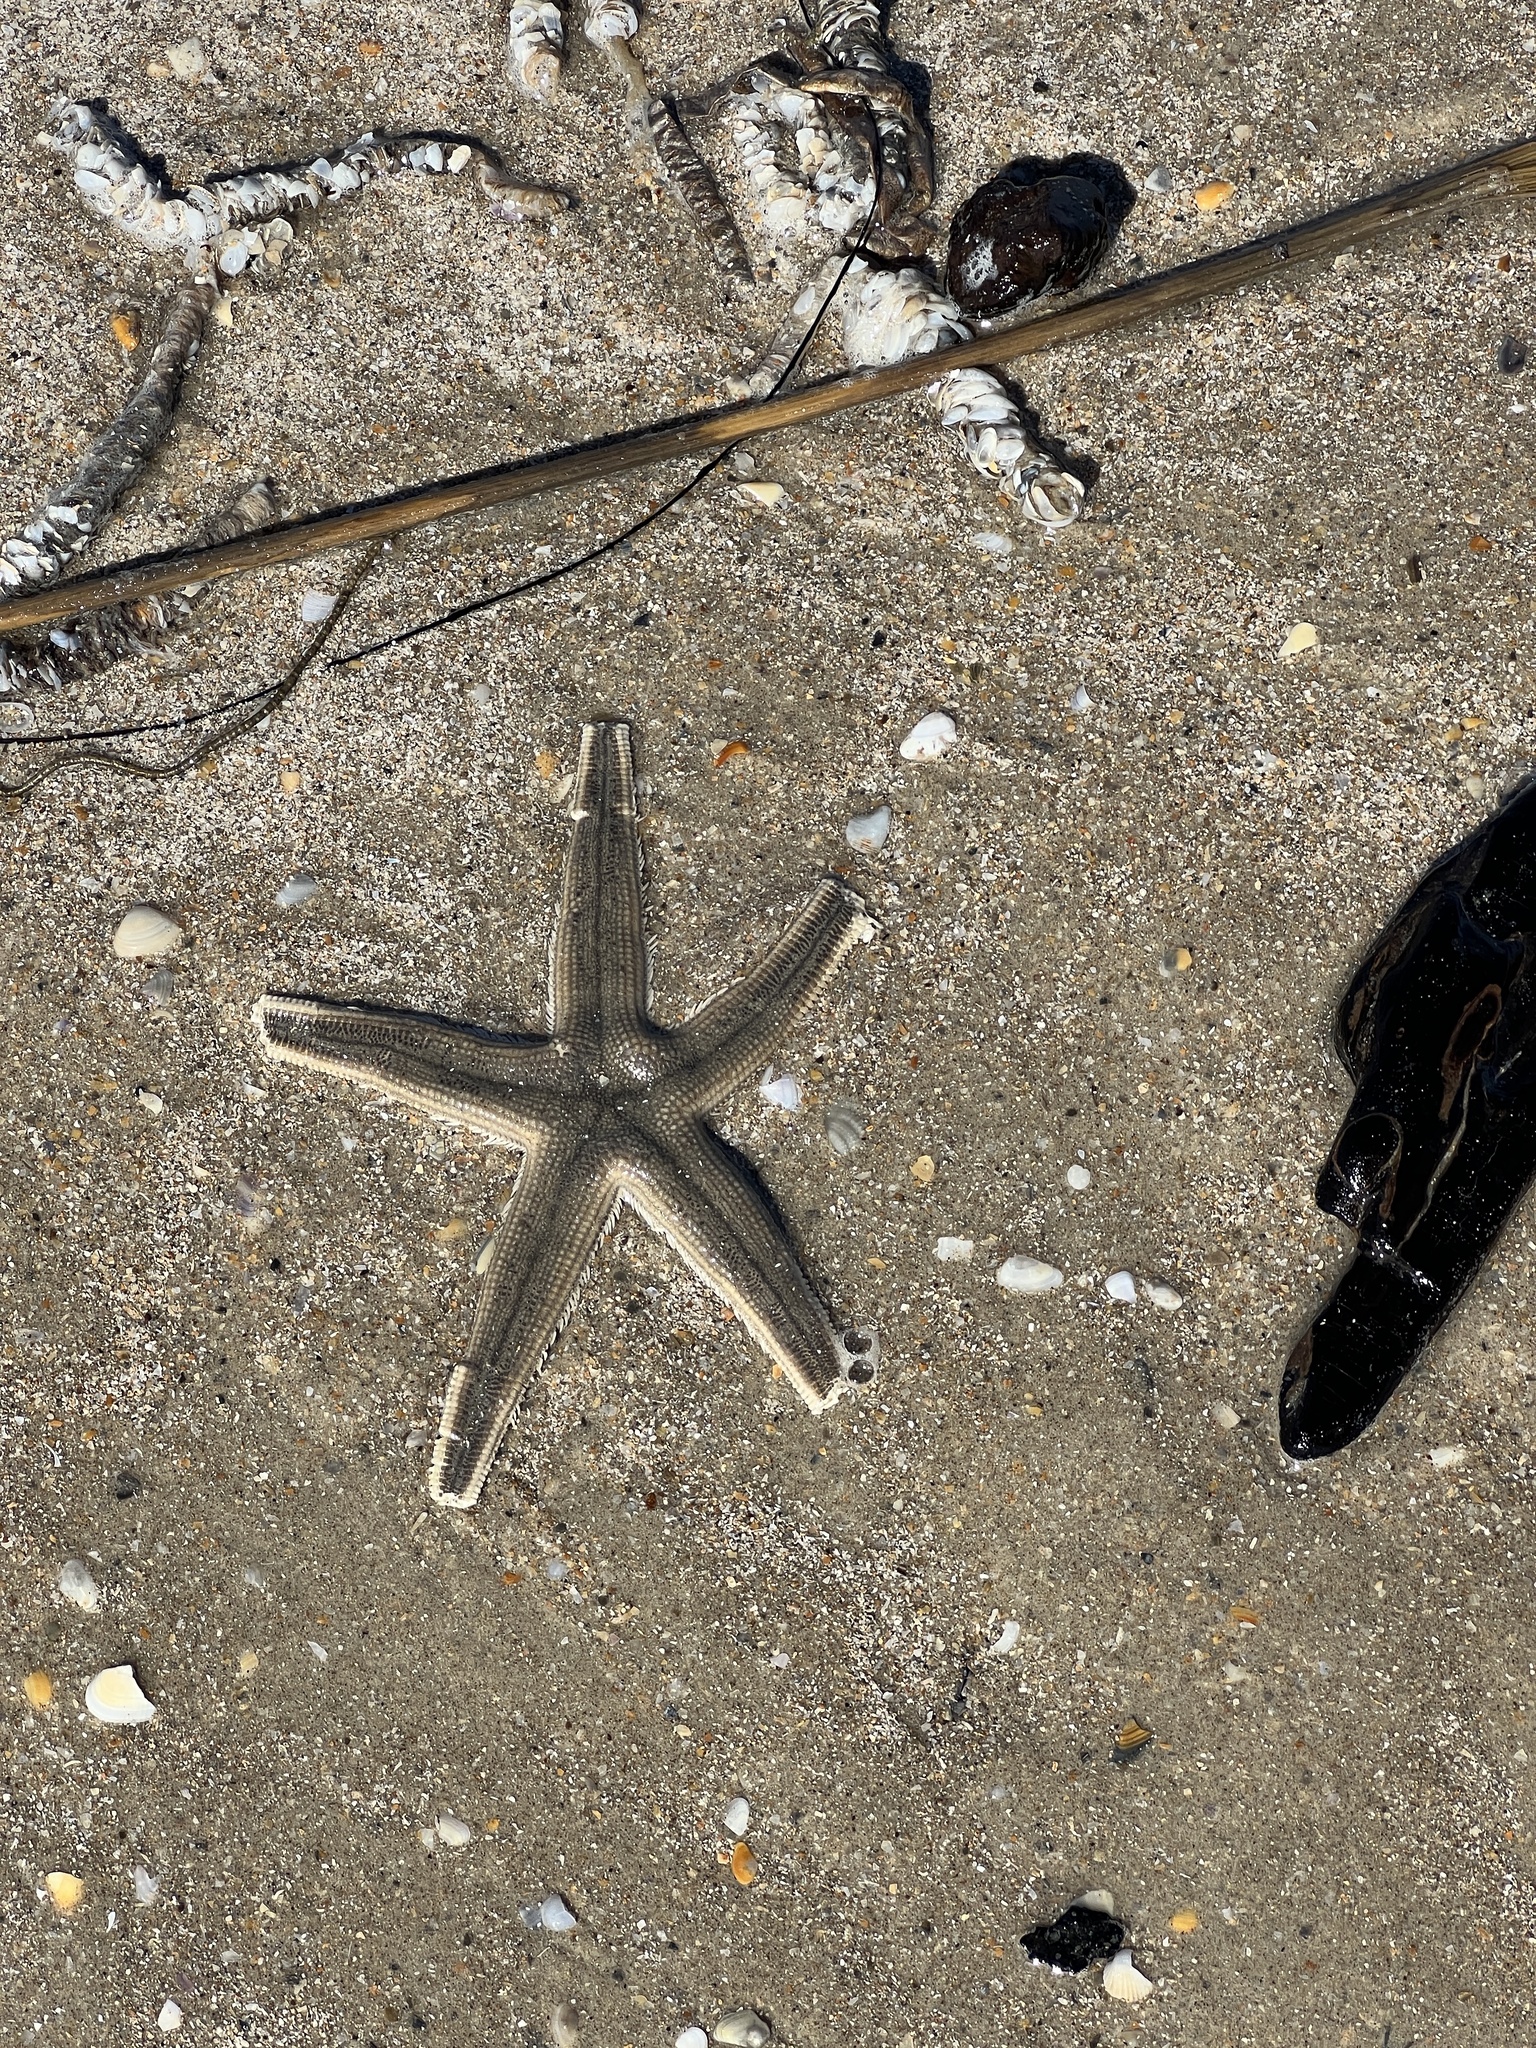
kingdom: Animalia
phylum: Echinodermata
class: Asteroidea
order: Paxillosida
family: Luidiidae
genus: Luidia
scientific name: Luidia clathrata
